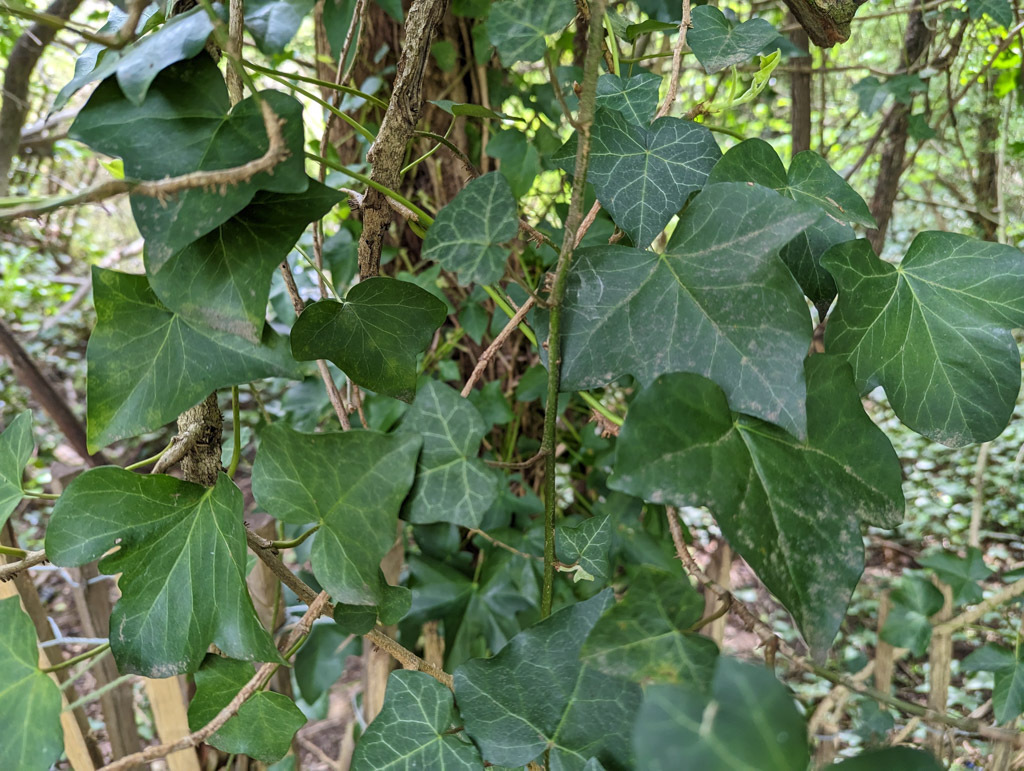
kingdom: Plantae
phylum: Tracheophyta
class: Magnoliopsida
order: Apiales
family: Araliaceae
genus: Hedera
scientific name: Hedera helix
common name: Ivy
